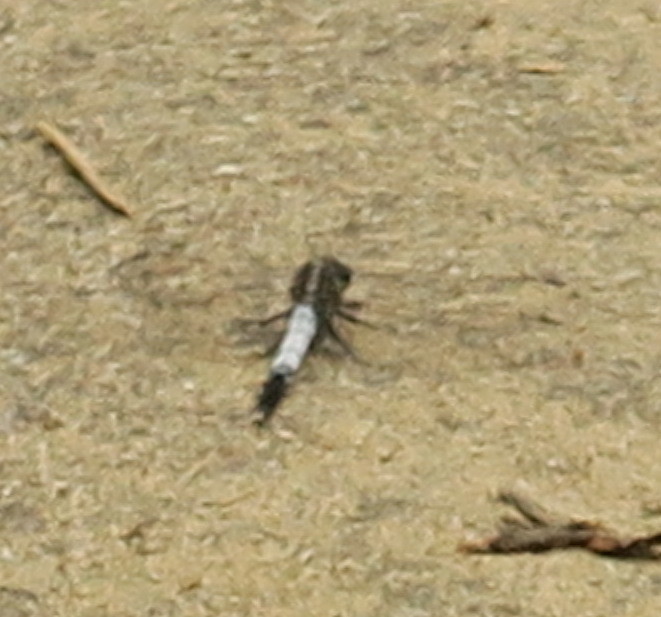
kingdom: Animalia
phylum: Arthropoda
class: Insecta
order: Odonata
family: Libellulidae
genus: Orthetrum
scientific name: Orthetrum albistylum
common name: White-tailed skimmer
